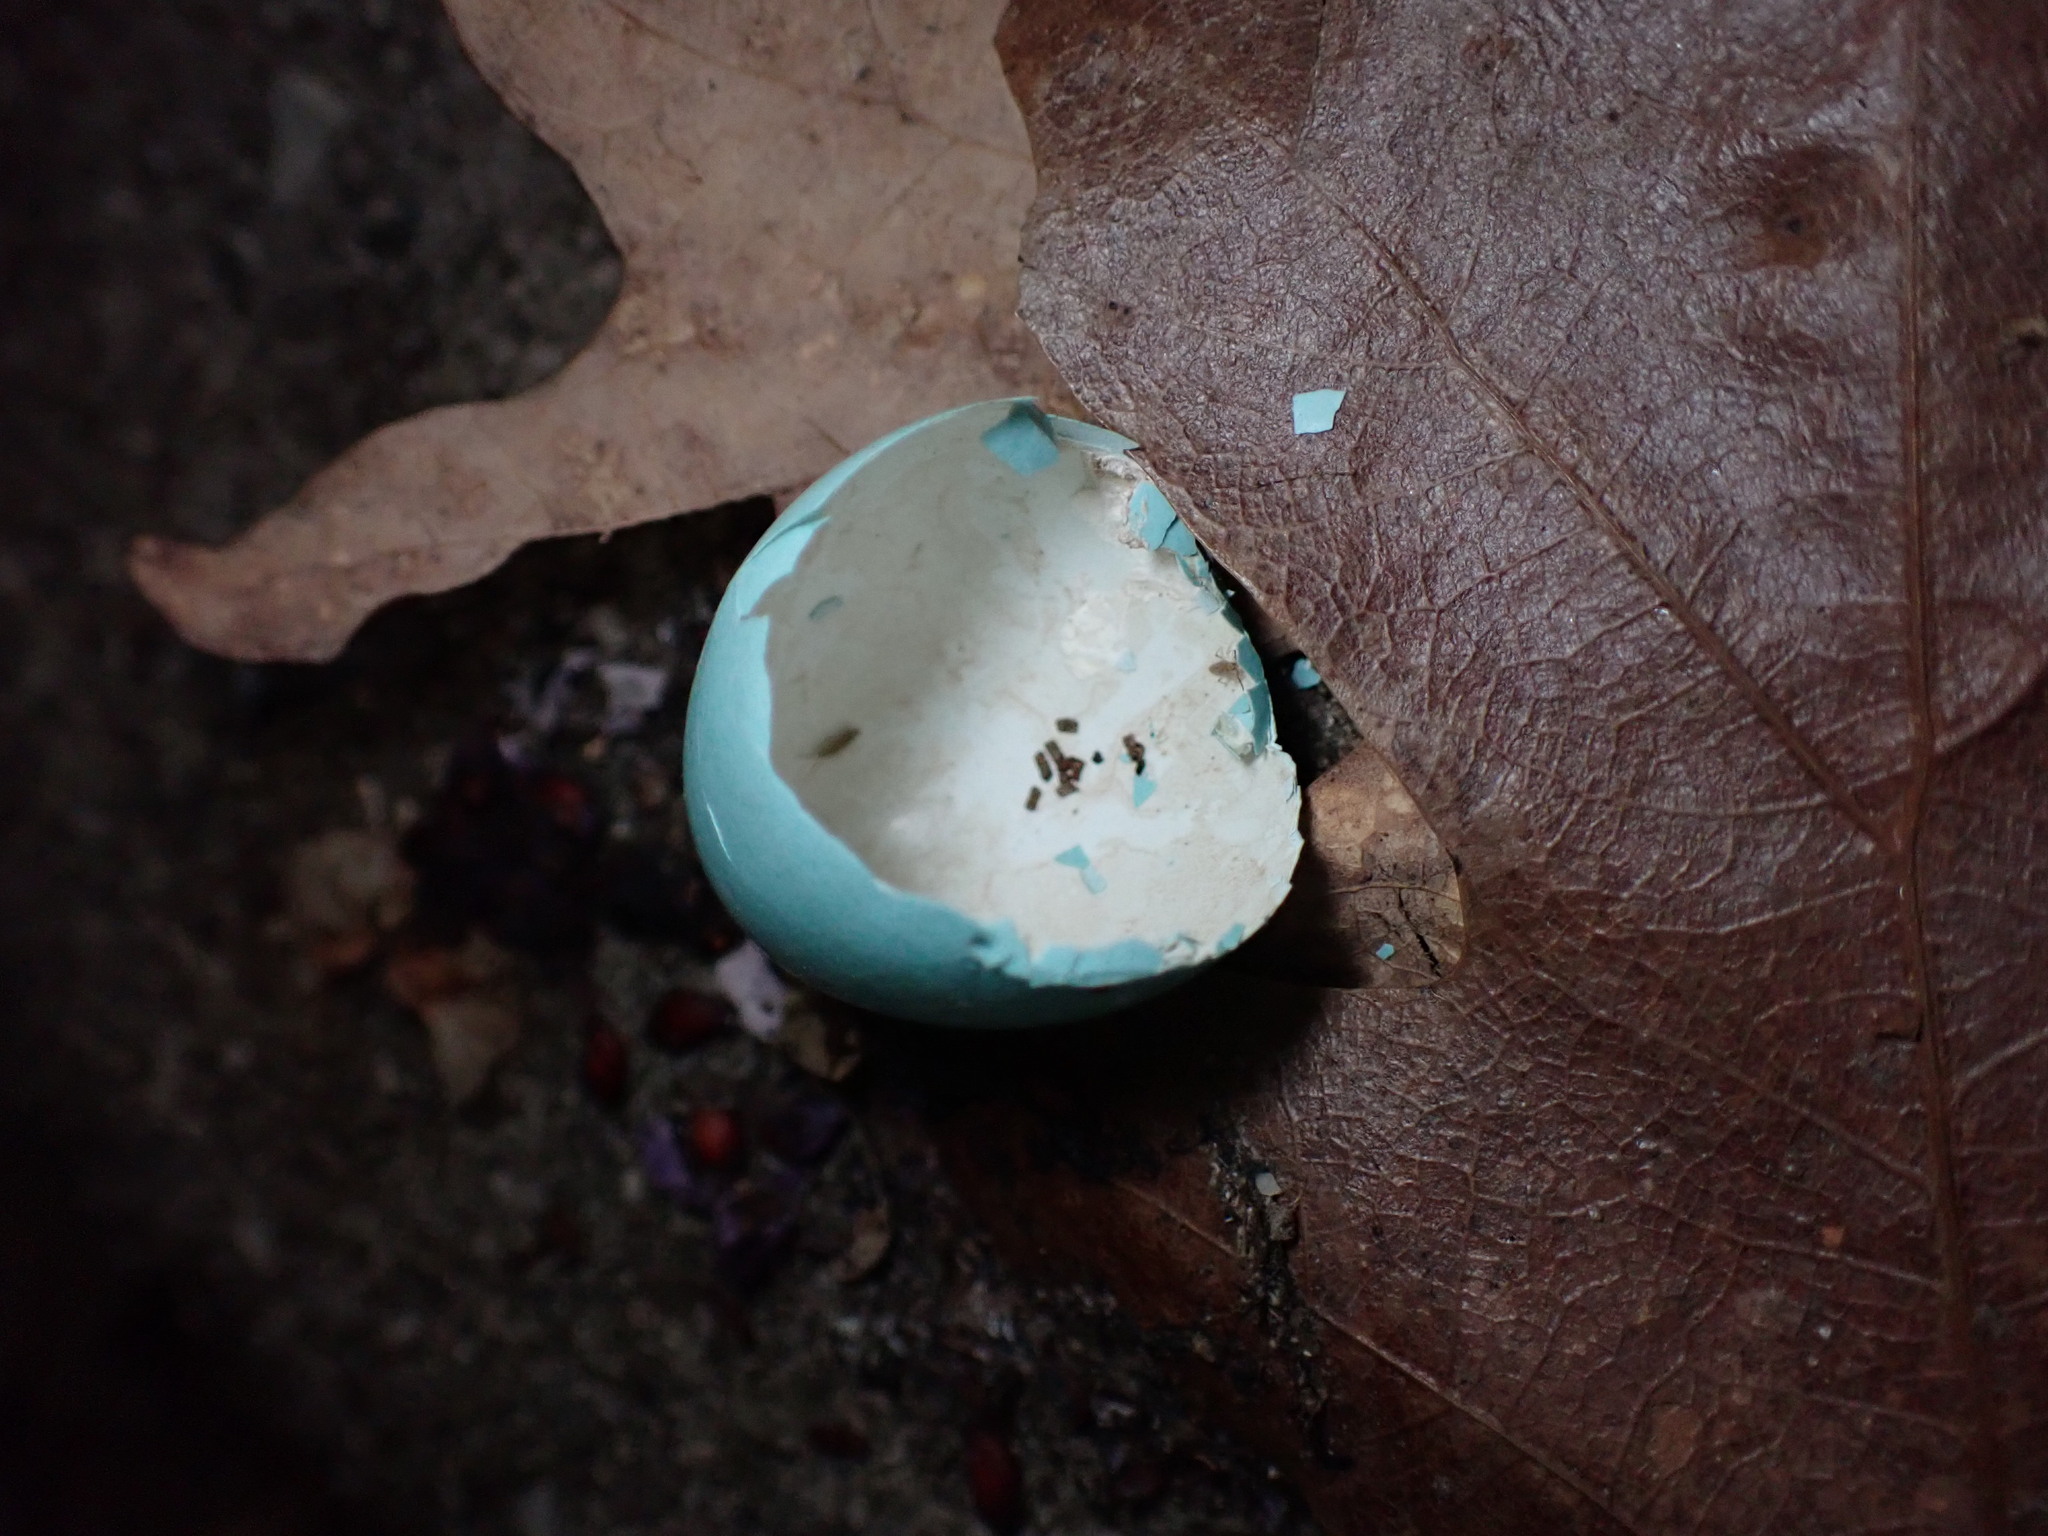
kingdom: Animalia
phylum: Chordata
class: Aves
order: Passeriformes
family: Turdidae
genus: Turdus
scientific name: Turdus migratorius
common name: American robin
